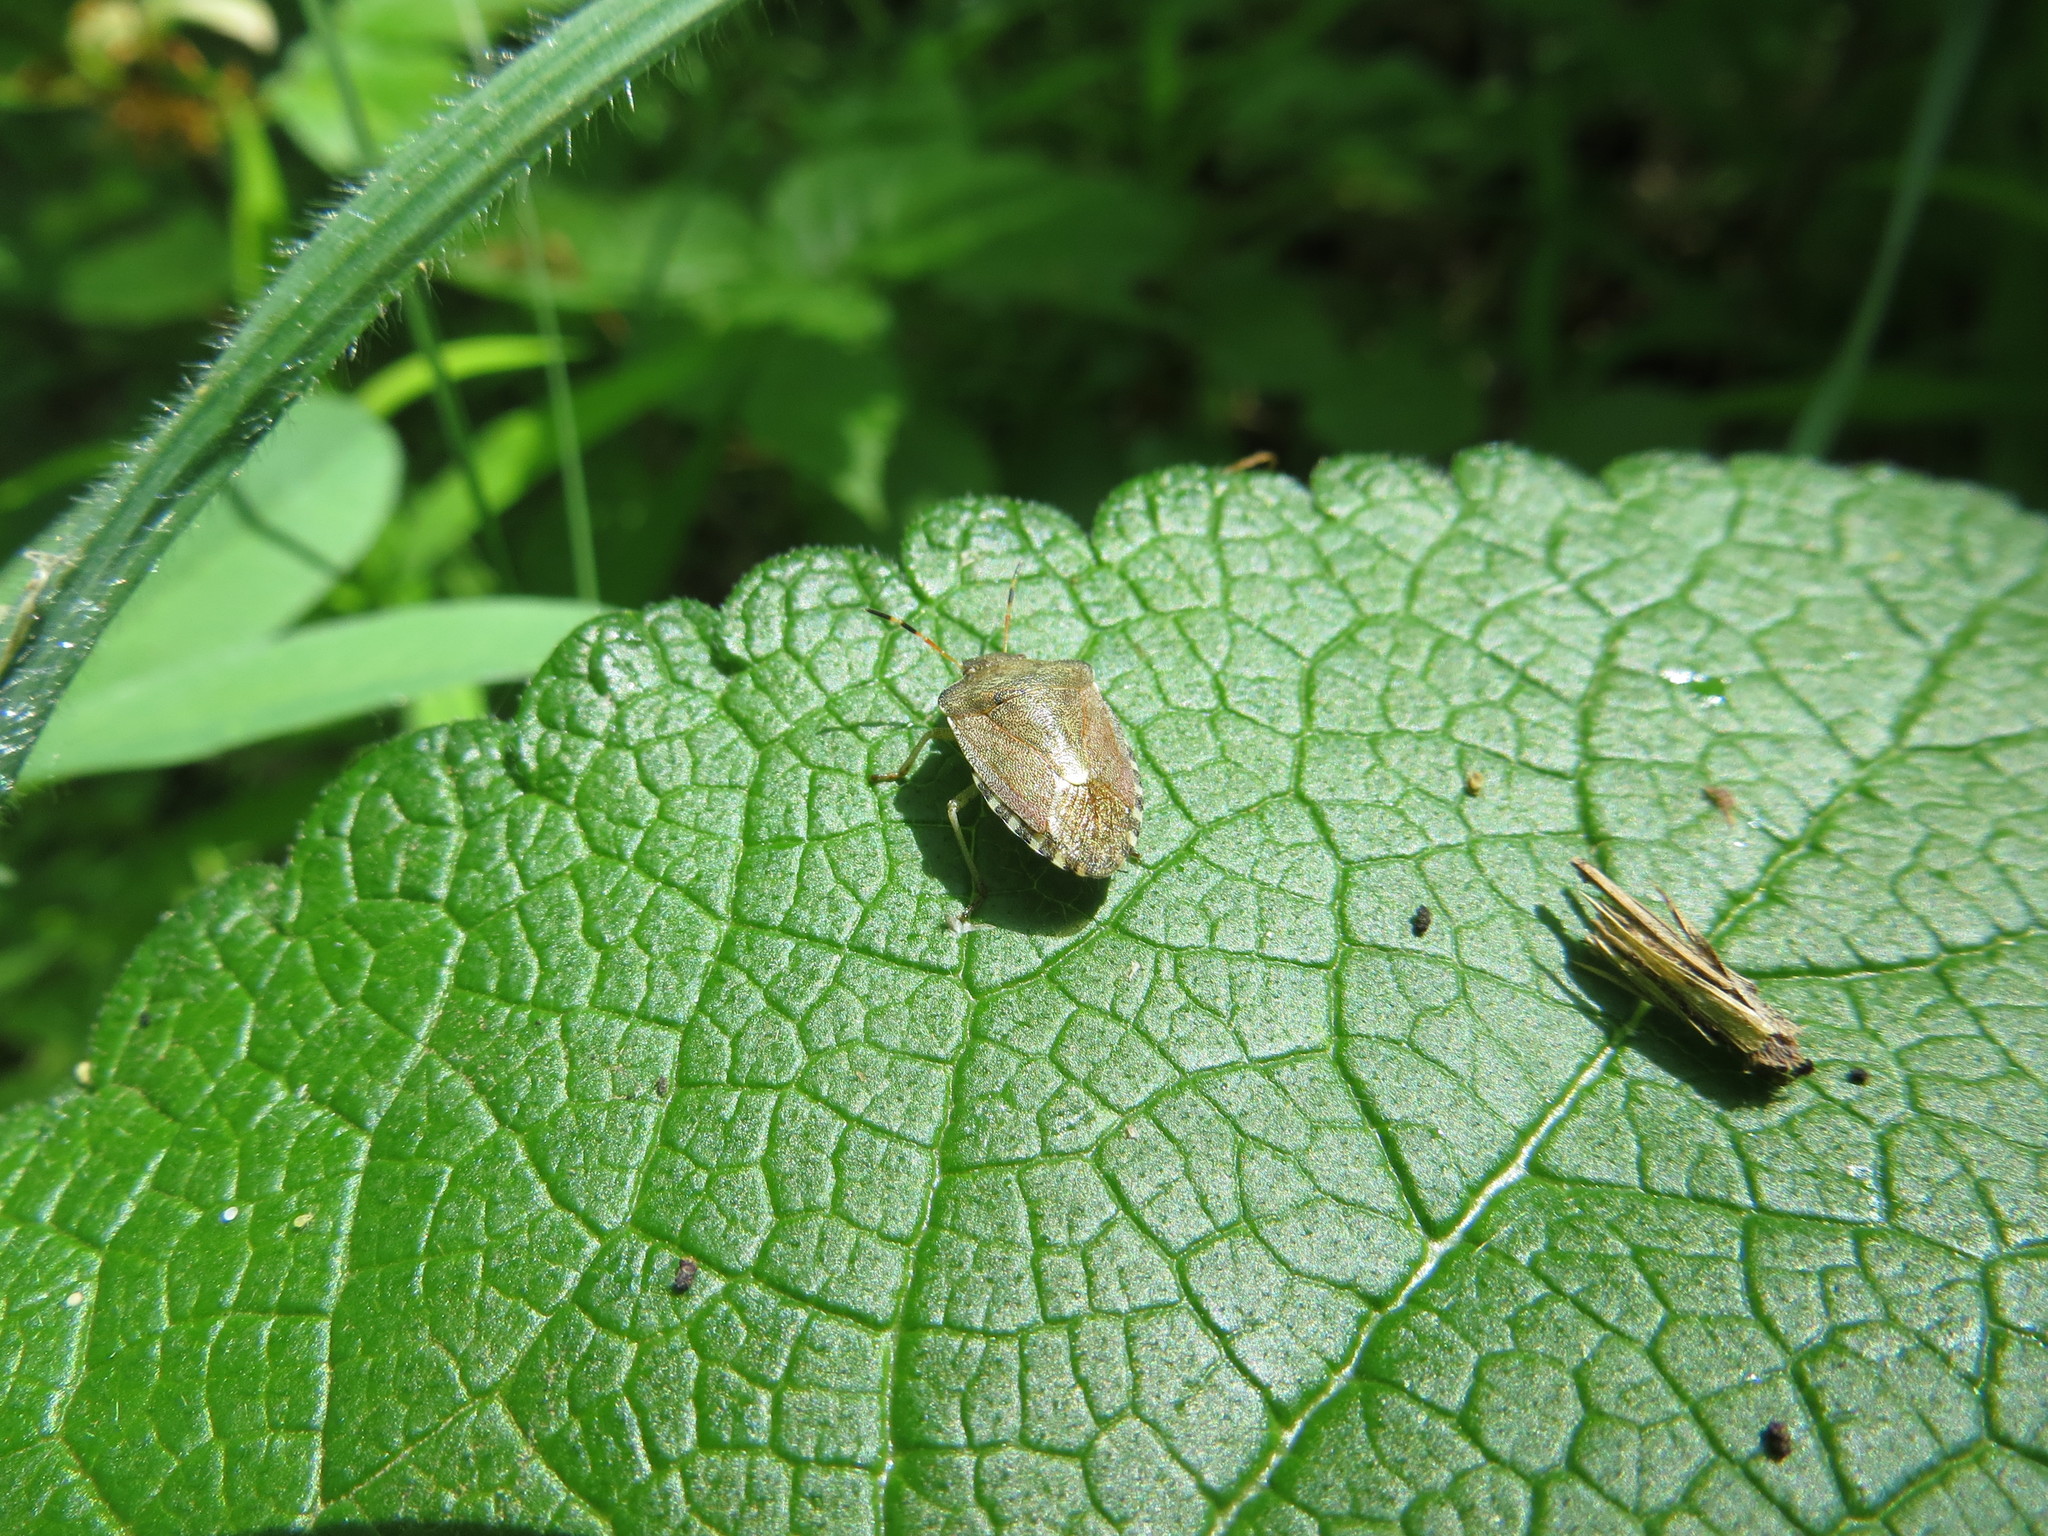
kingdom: Animalia
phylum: Arthropoda
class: Insecta
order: Hemiptera
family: Pentatomidae
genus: Holcostethus
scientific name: Holcostethus strictus
